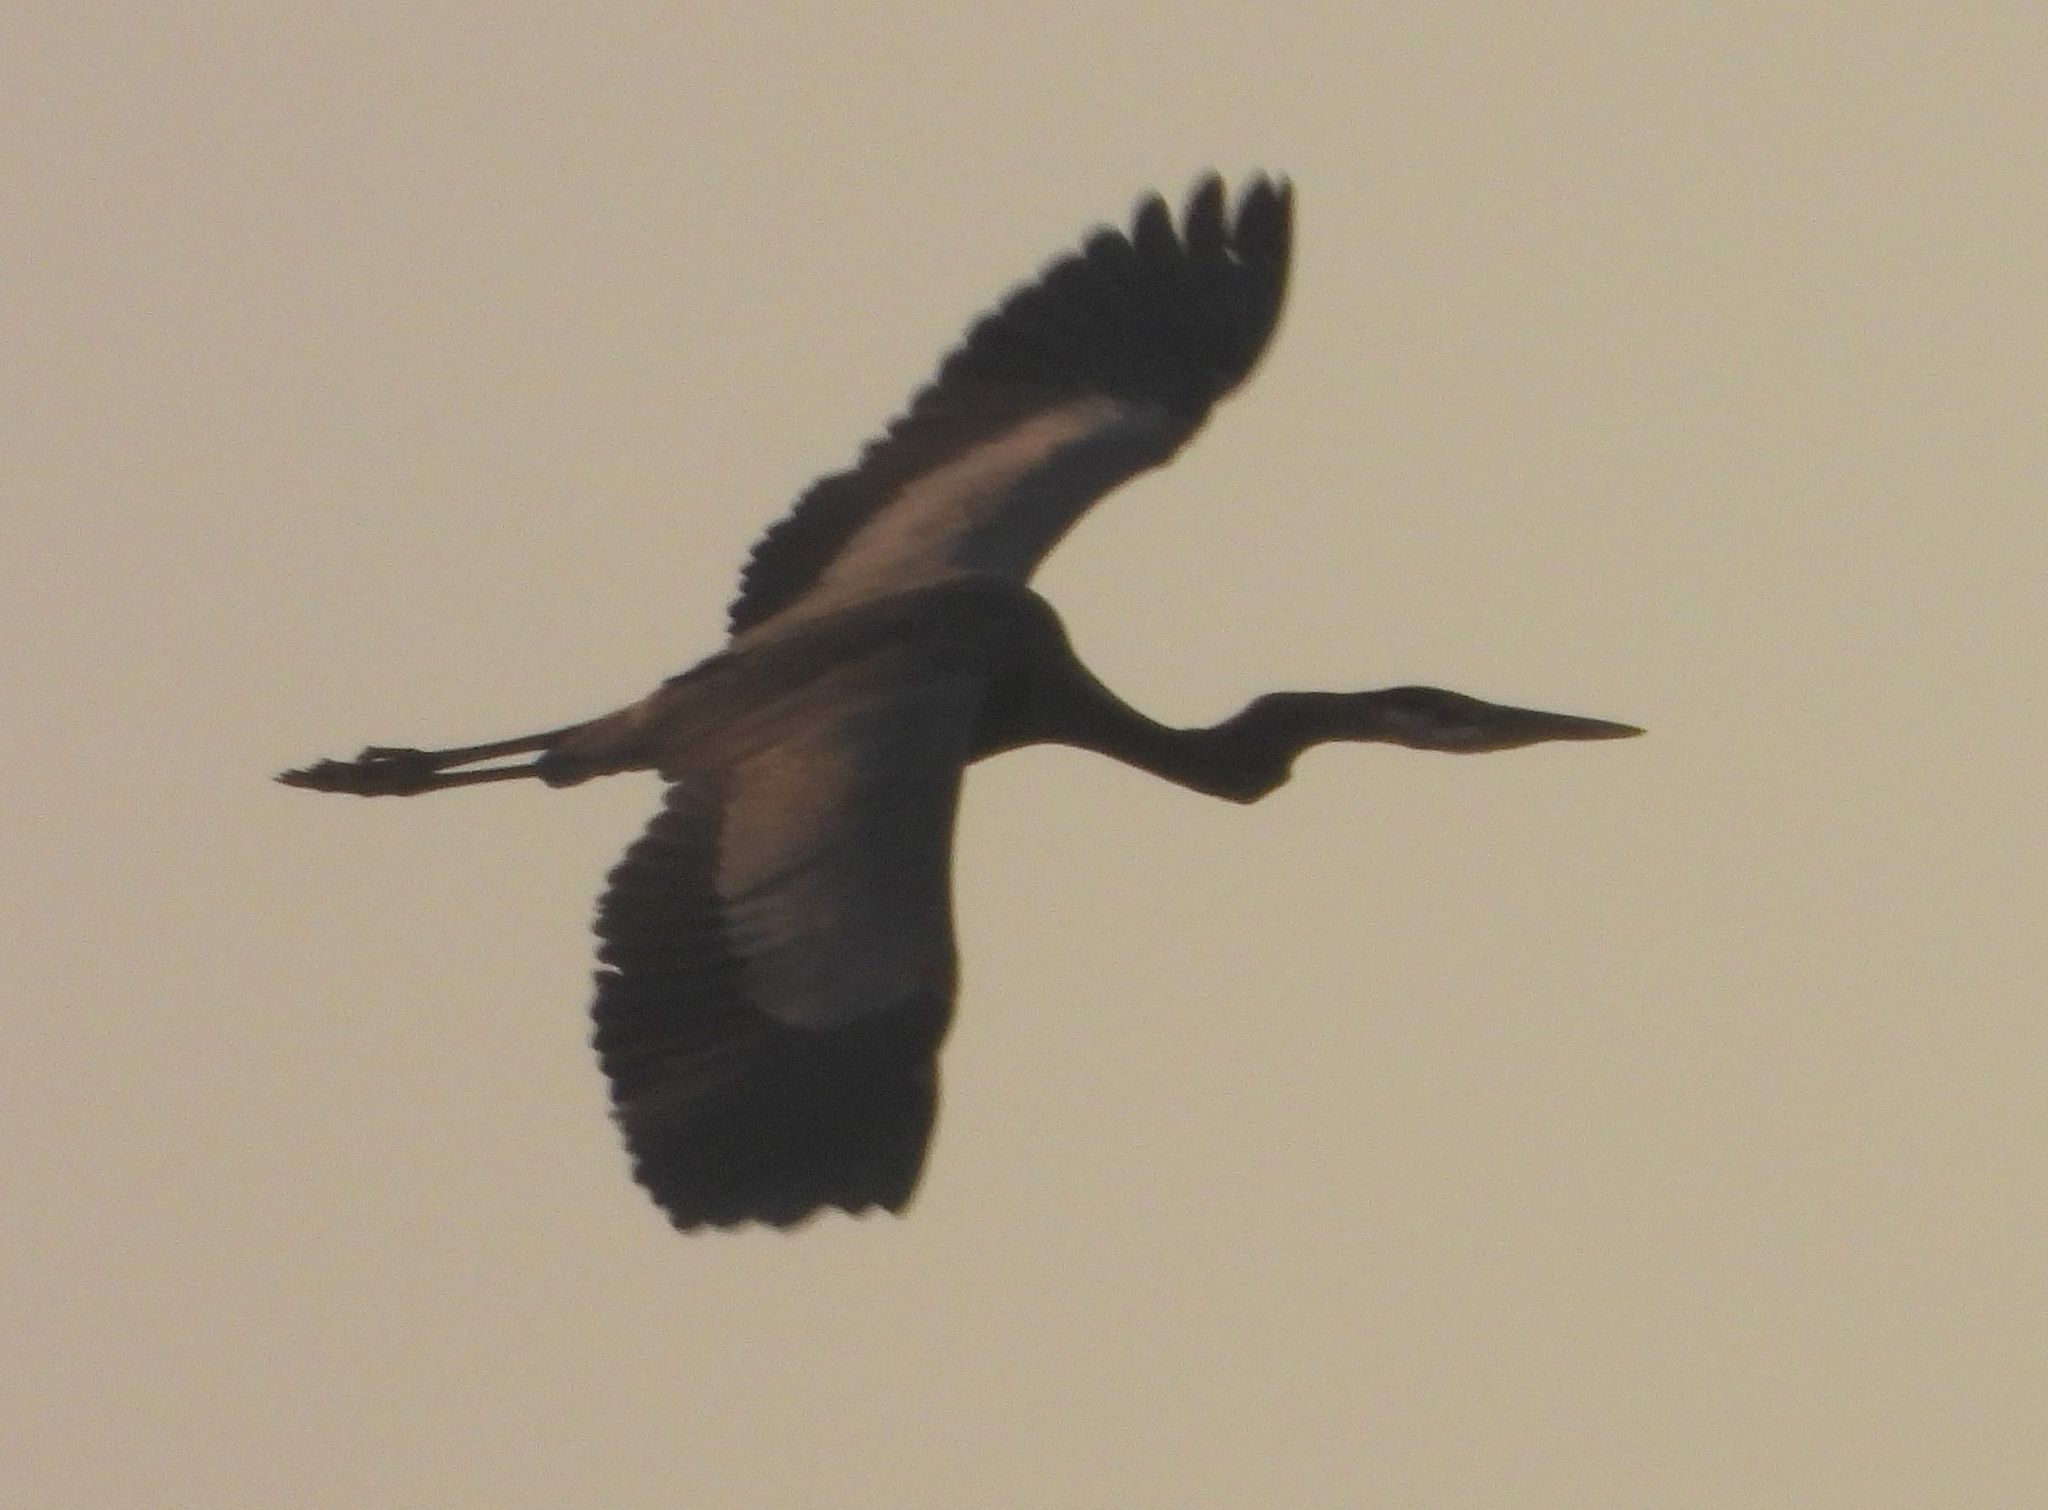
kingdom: Animalia
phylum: Chordata
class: Aves
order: Pelecaniformes
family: Ardeidae
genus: Ardea
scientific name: Ardea herodias
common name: Great blue heron
